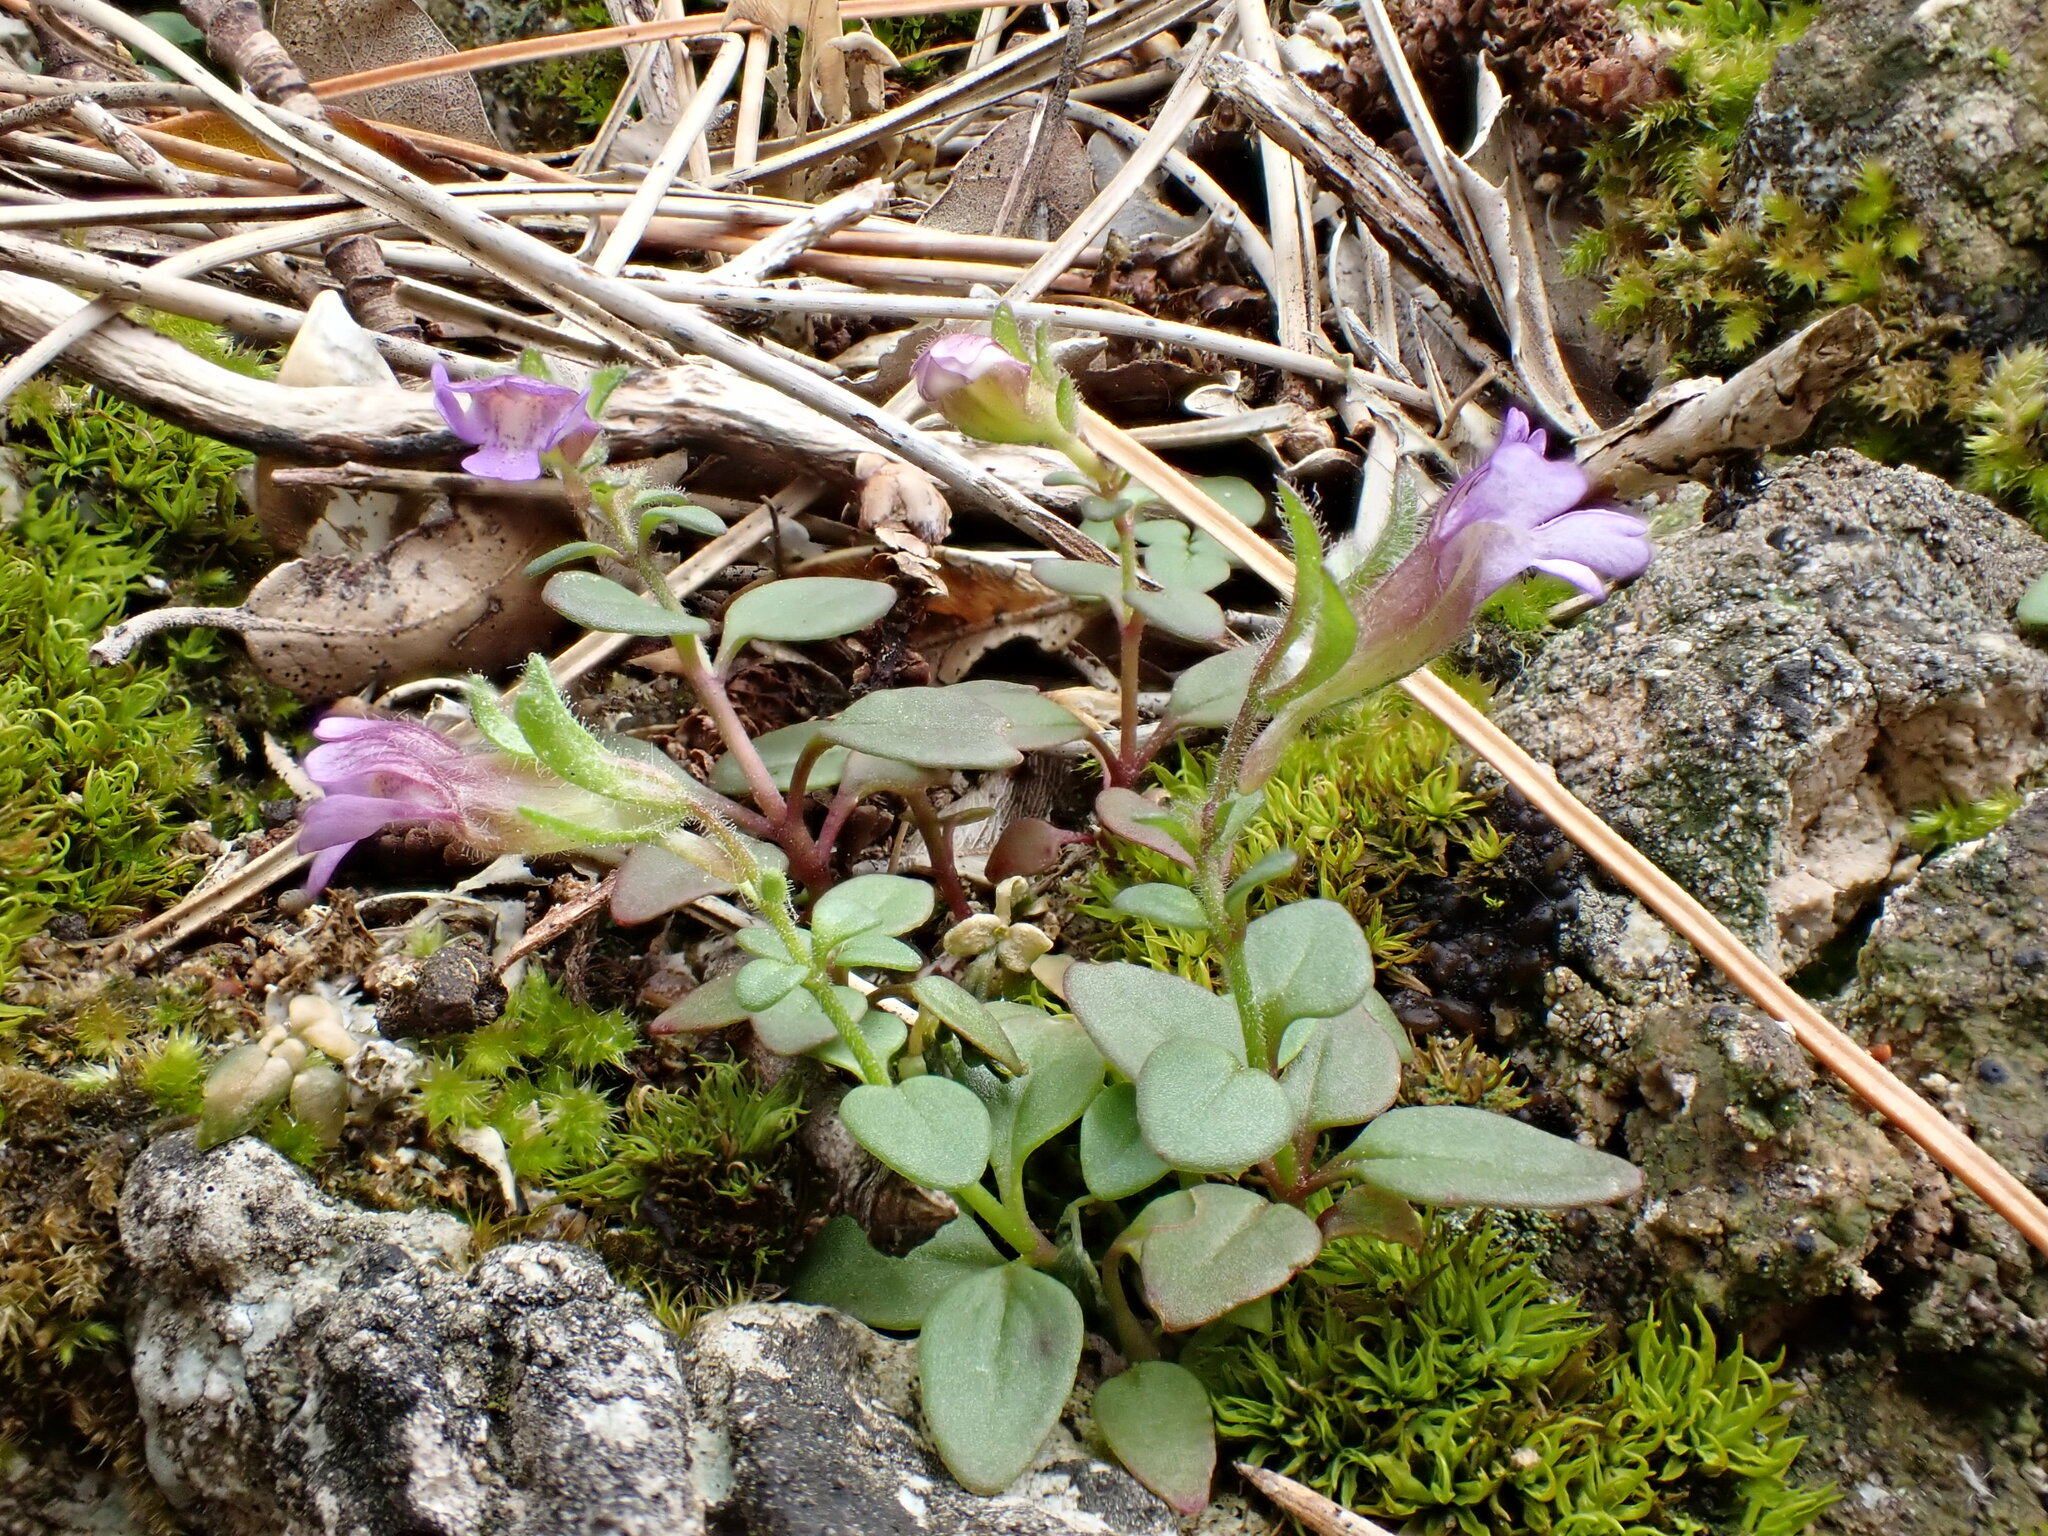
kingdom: Plantae
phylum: Tracheophyta
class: Magnoliopsida
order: Lamiales
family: Plantaginaceae
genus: Chaenorhinum
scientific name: Chaenorhinum origanifolium
